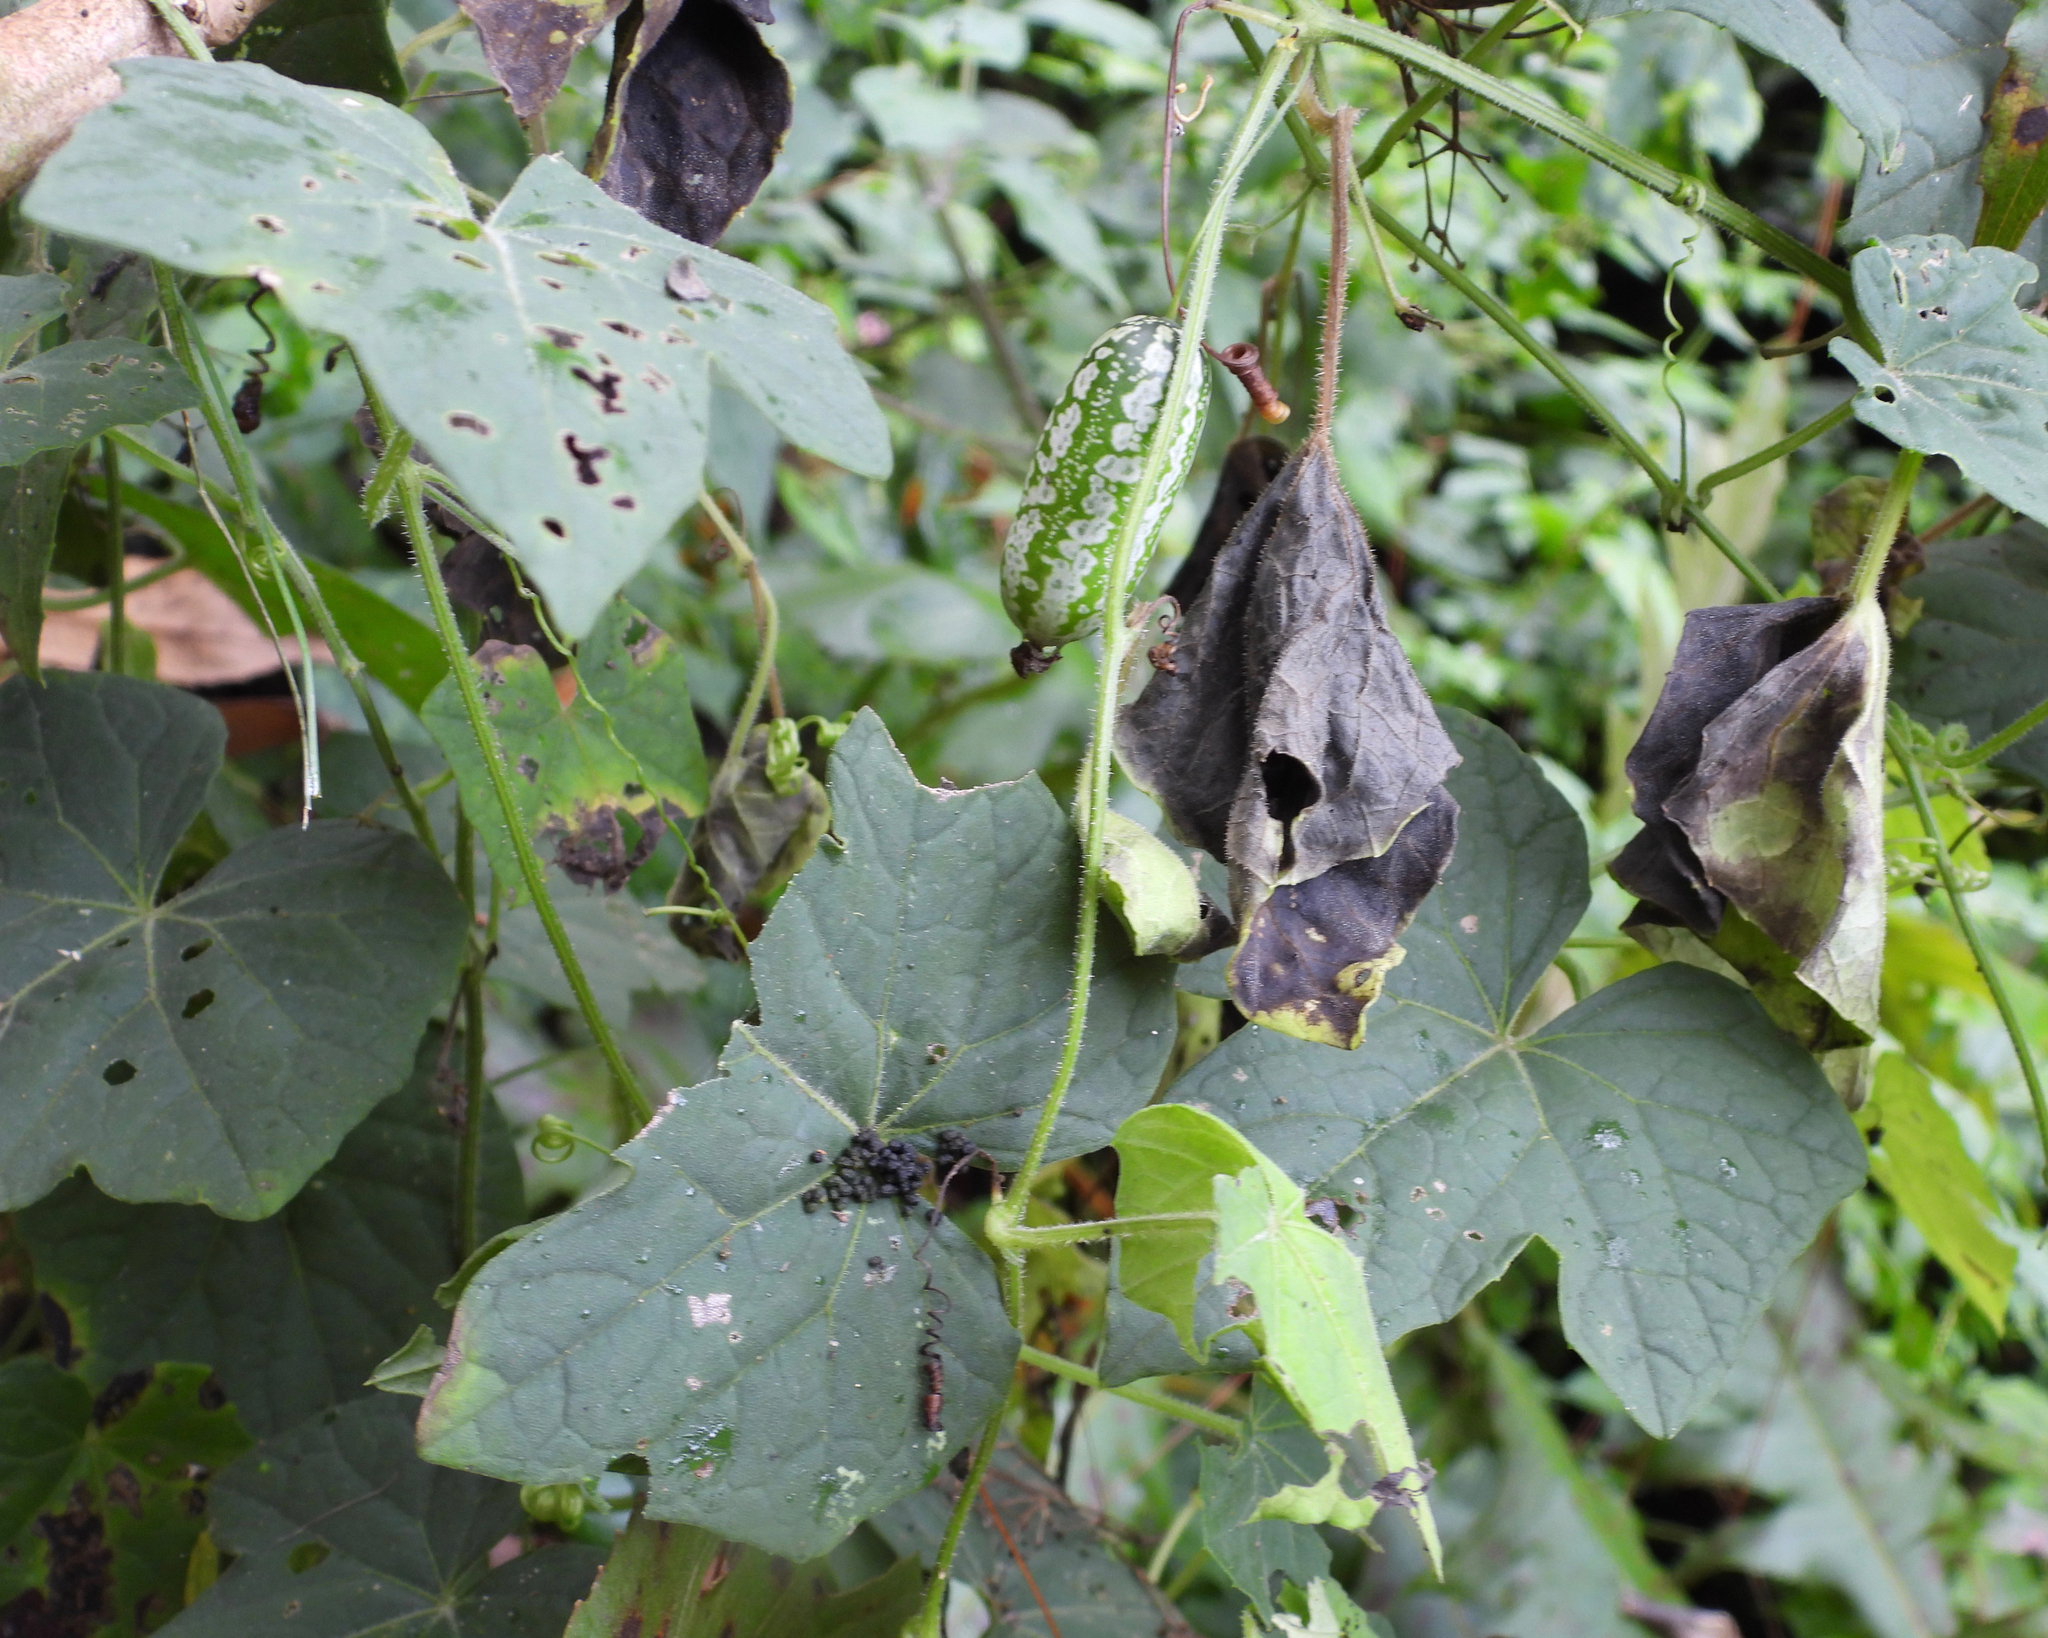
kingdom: Plantae
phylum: Tracheophyta
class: Magnoliopsida
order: Cucurbitales
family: Cucurbitaceae
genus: Melothria
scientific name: Melothria scabra
